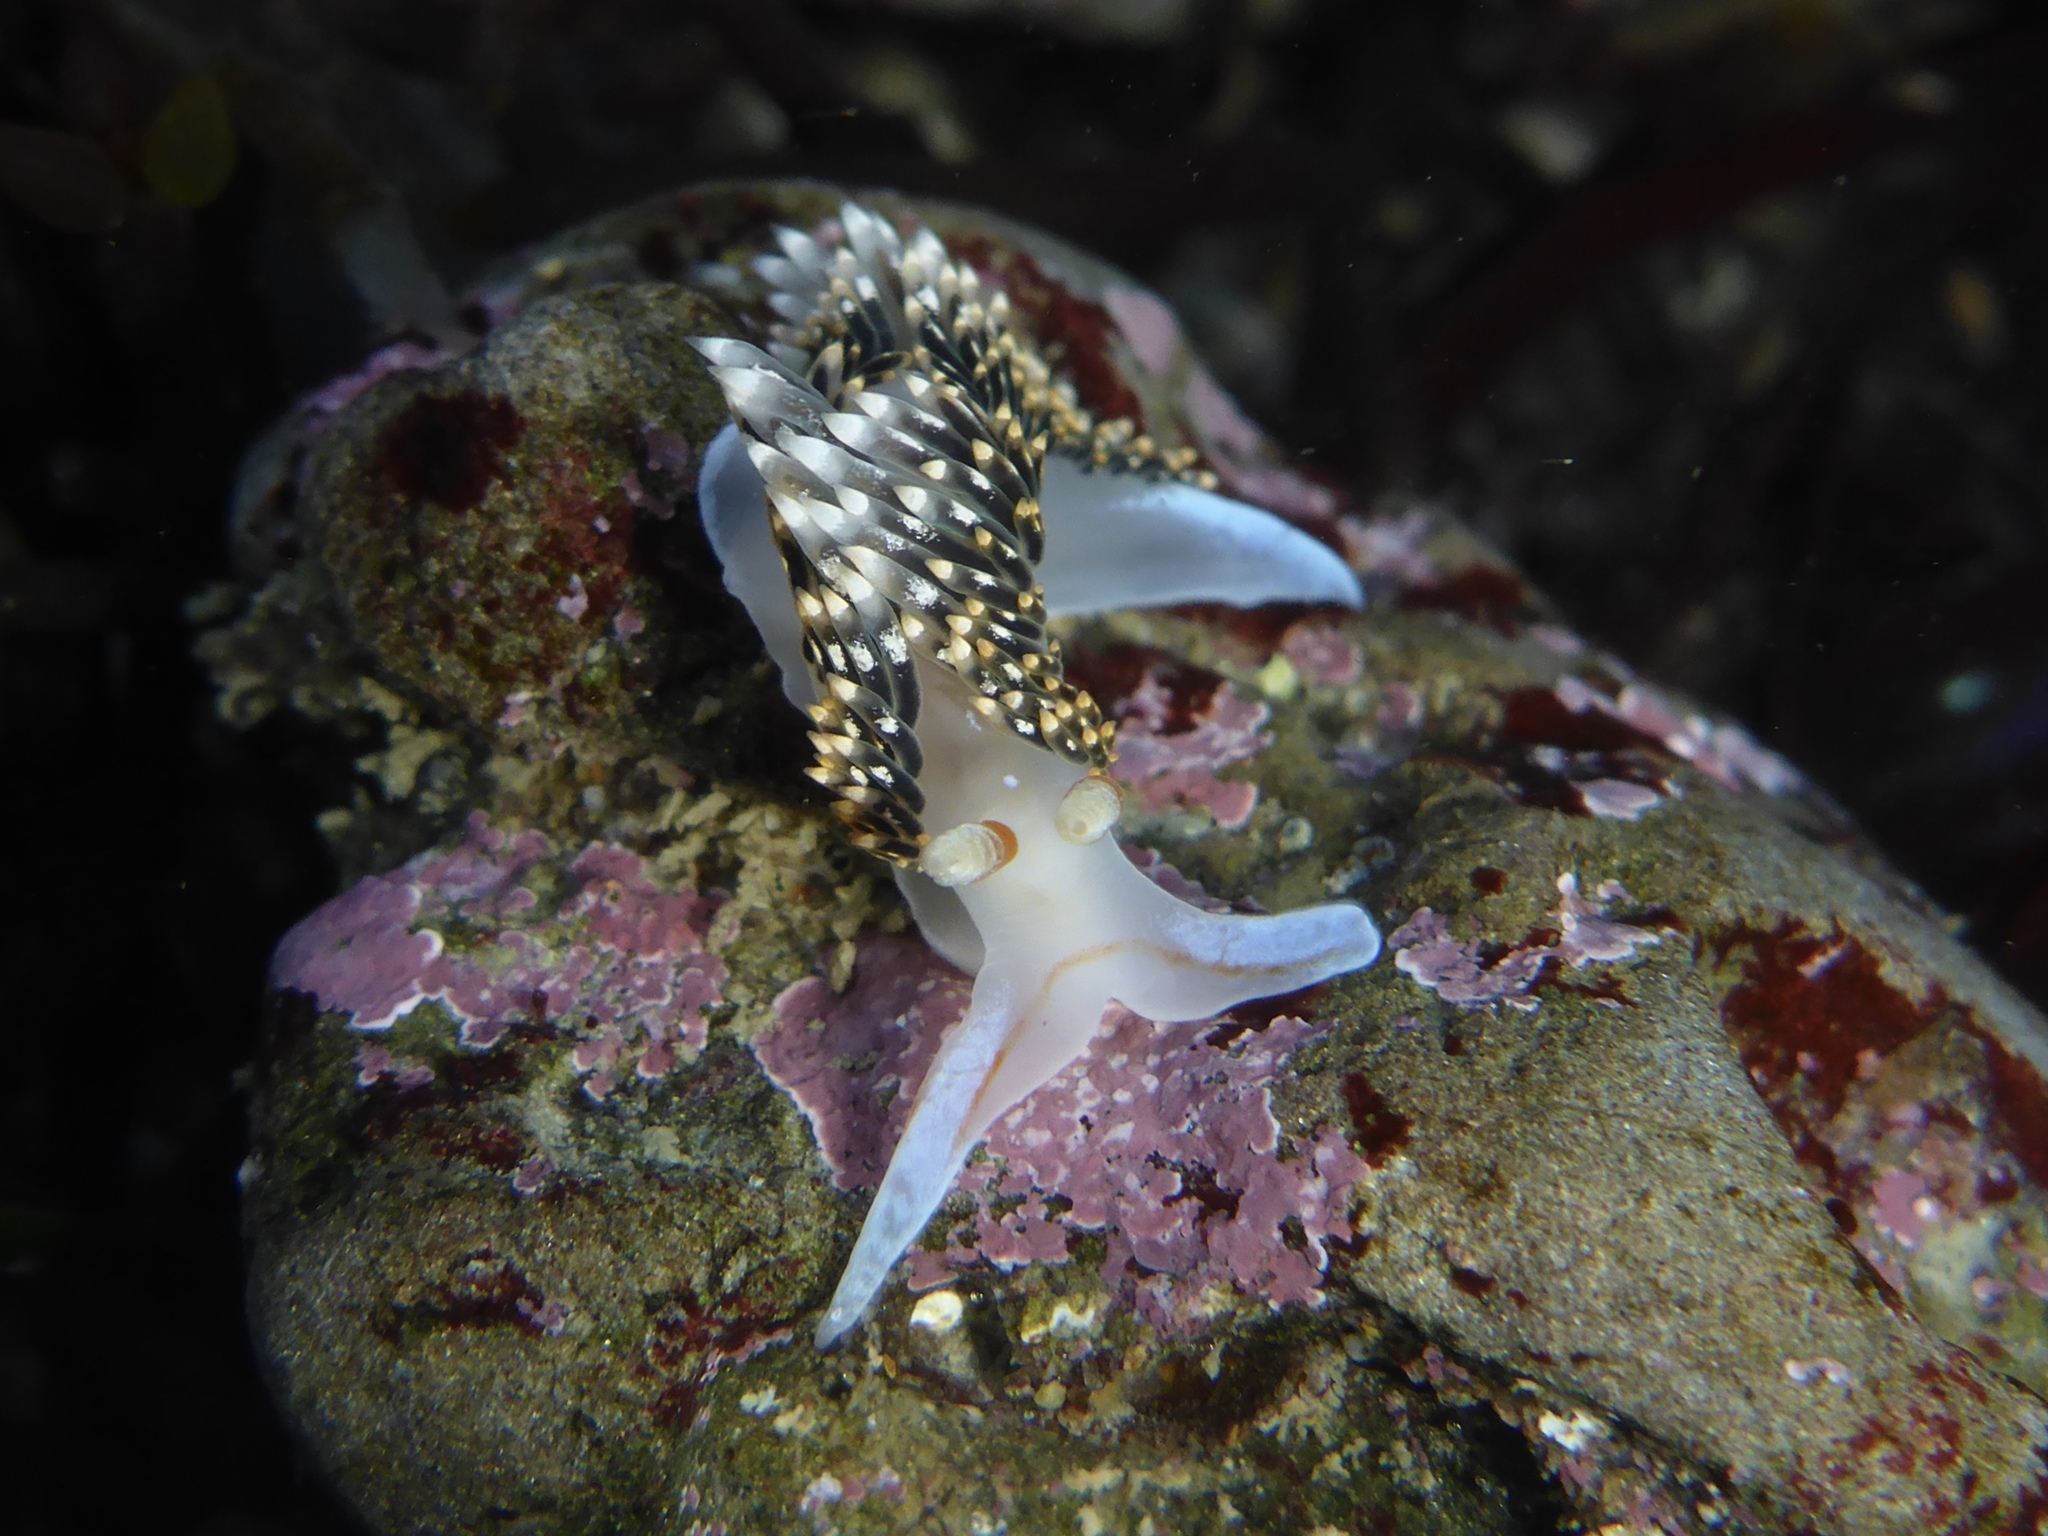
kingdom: Animalia
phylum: Mollusca
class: Gastropoda
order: Nudibranchia
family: Facelinidae
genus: Phidiana
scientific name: Phidiana hiltoni
